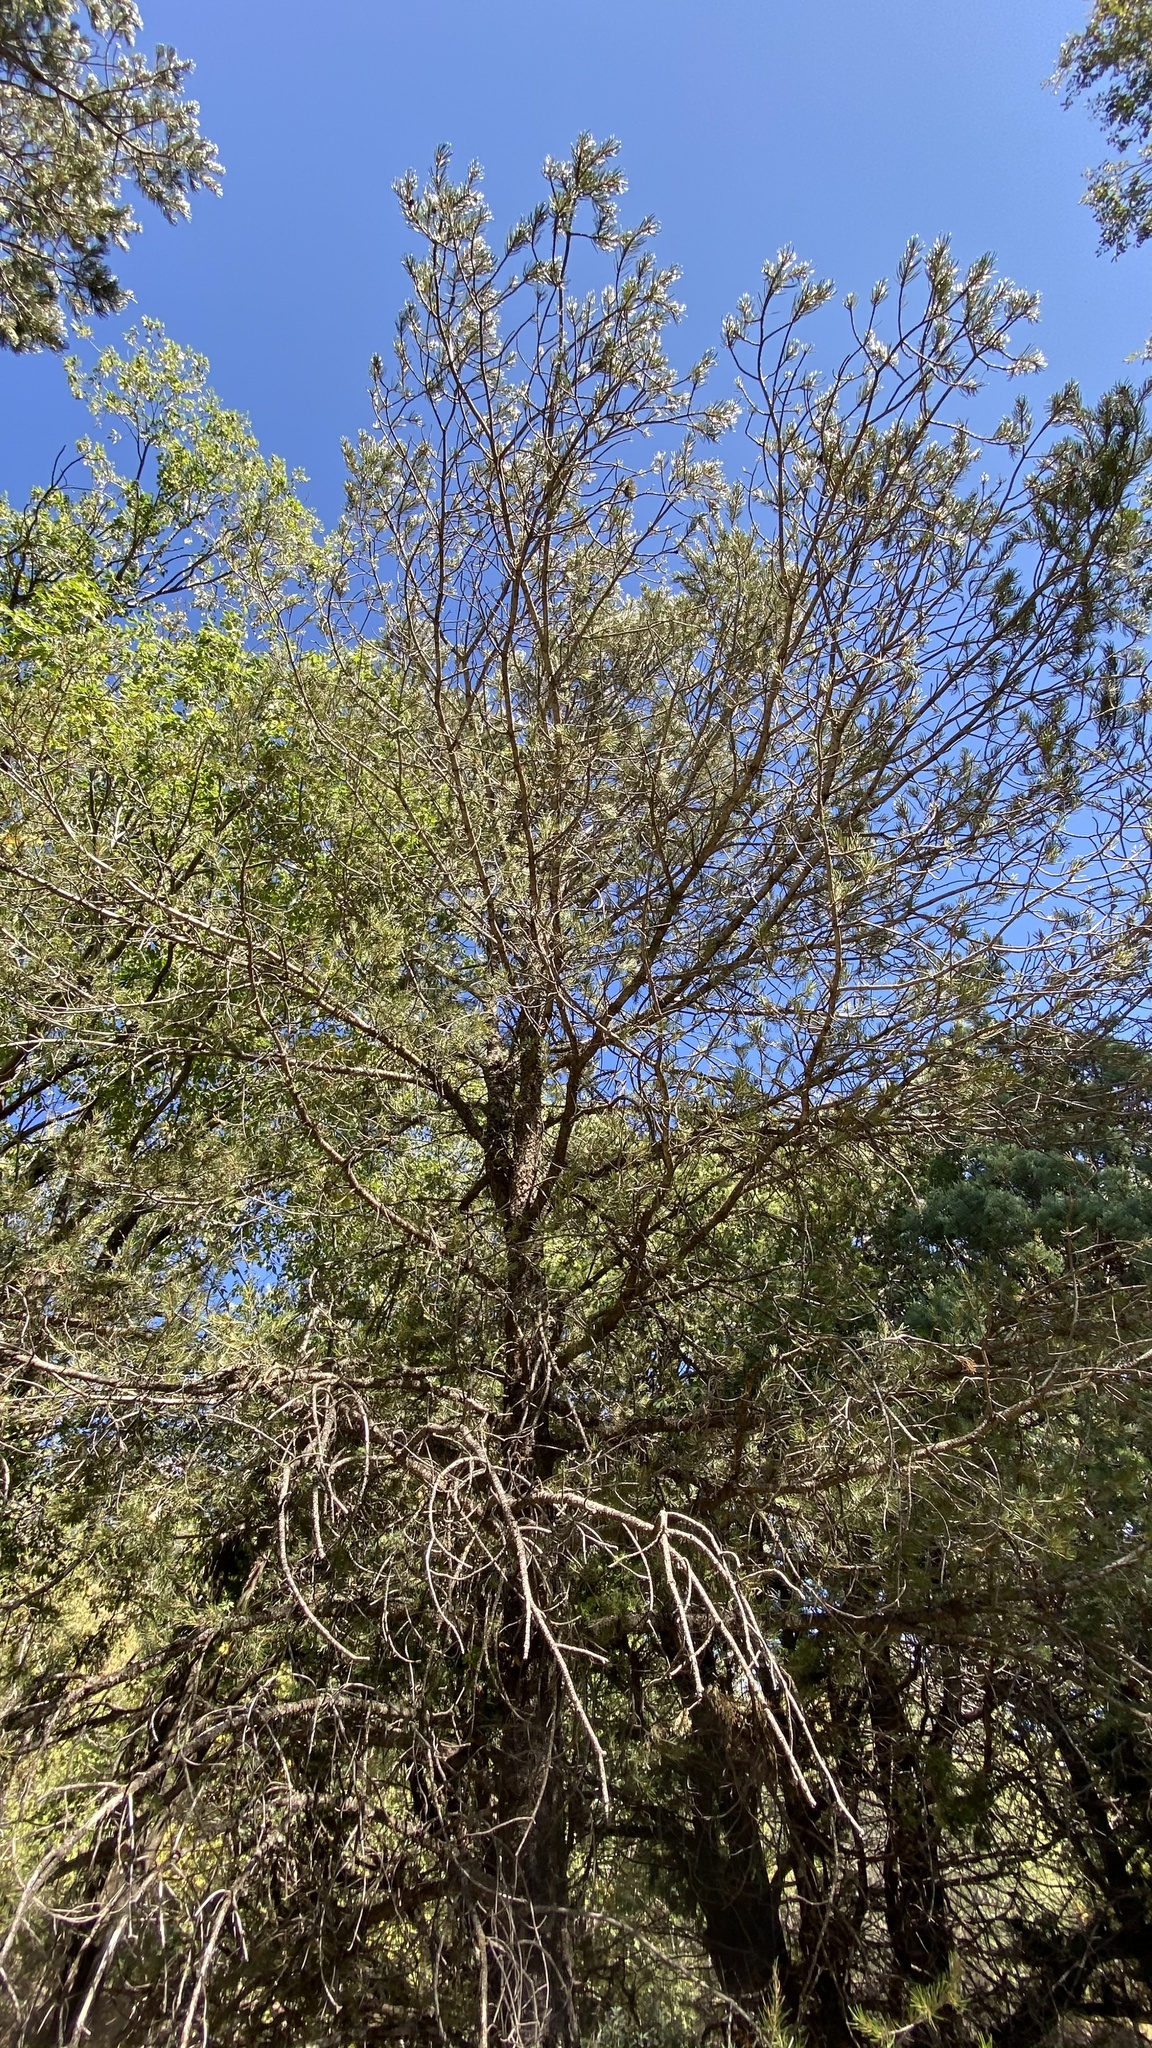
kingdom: Plantae
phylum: Tracheophyta
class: Pinopsida
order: Pinales
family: Pinaceae
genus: Pinus
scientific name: Pinus edulis
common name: Colorado pinyon
